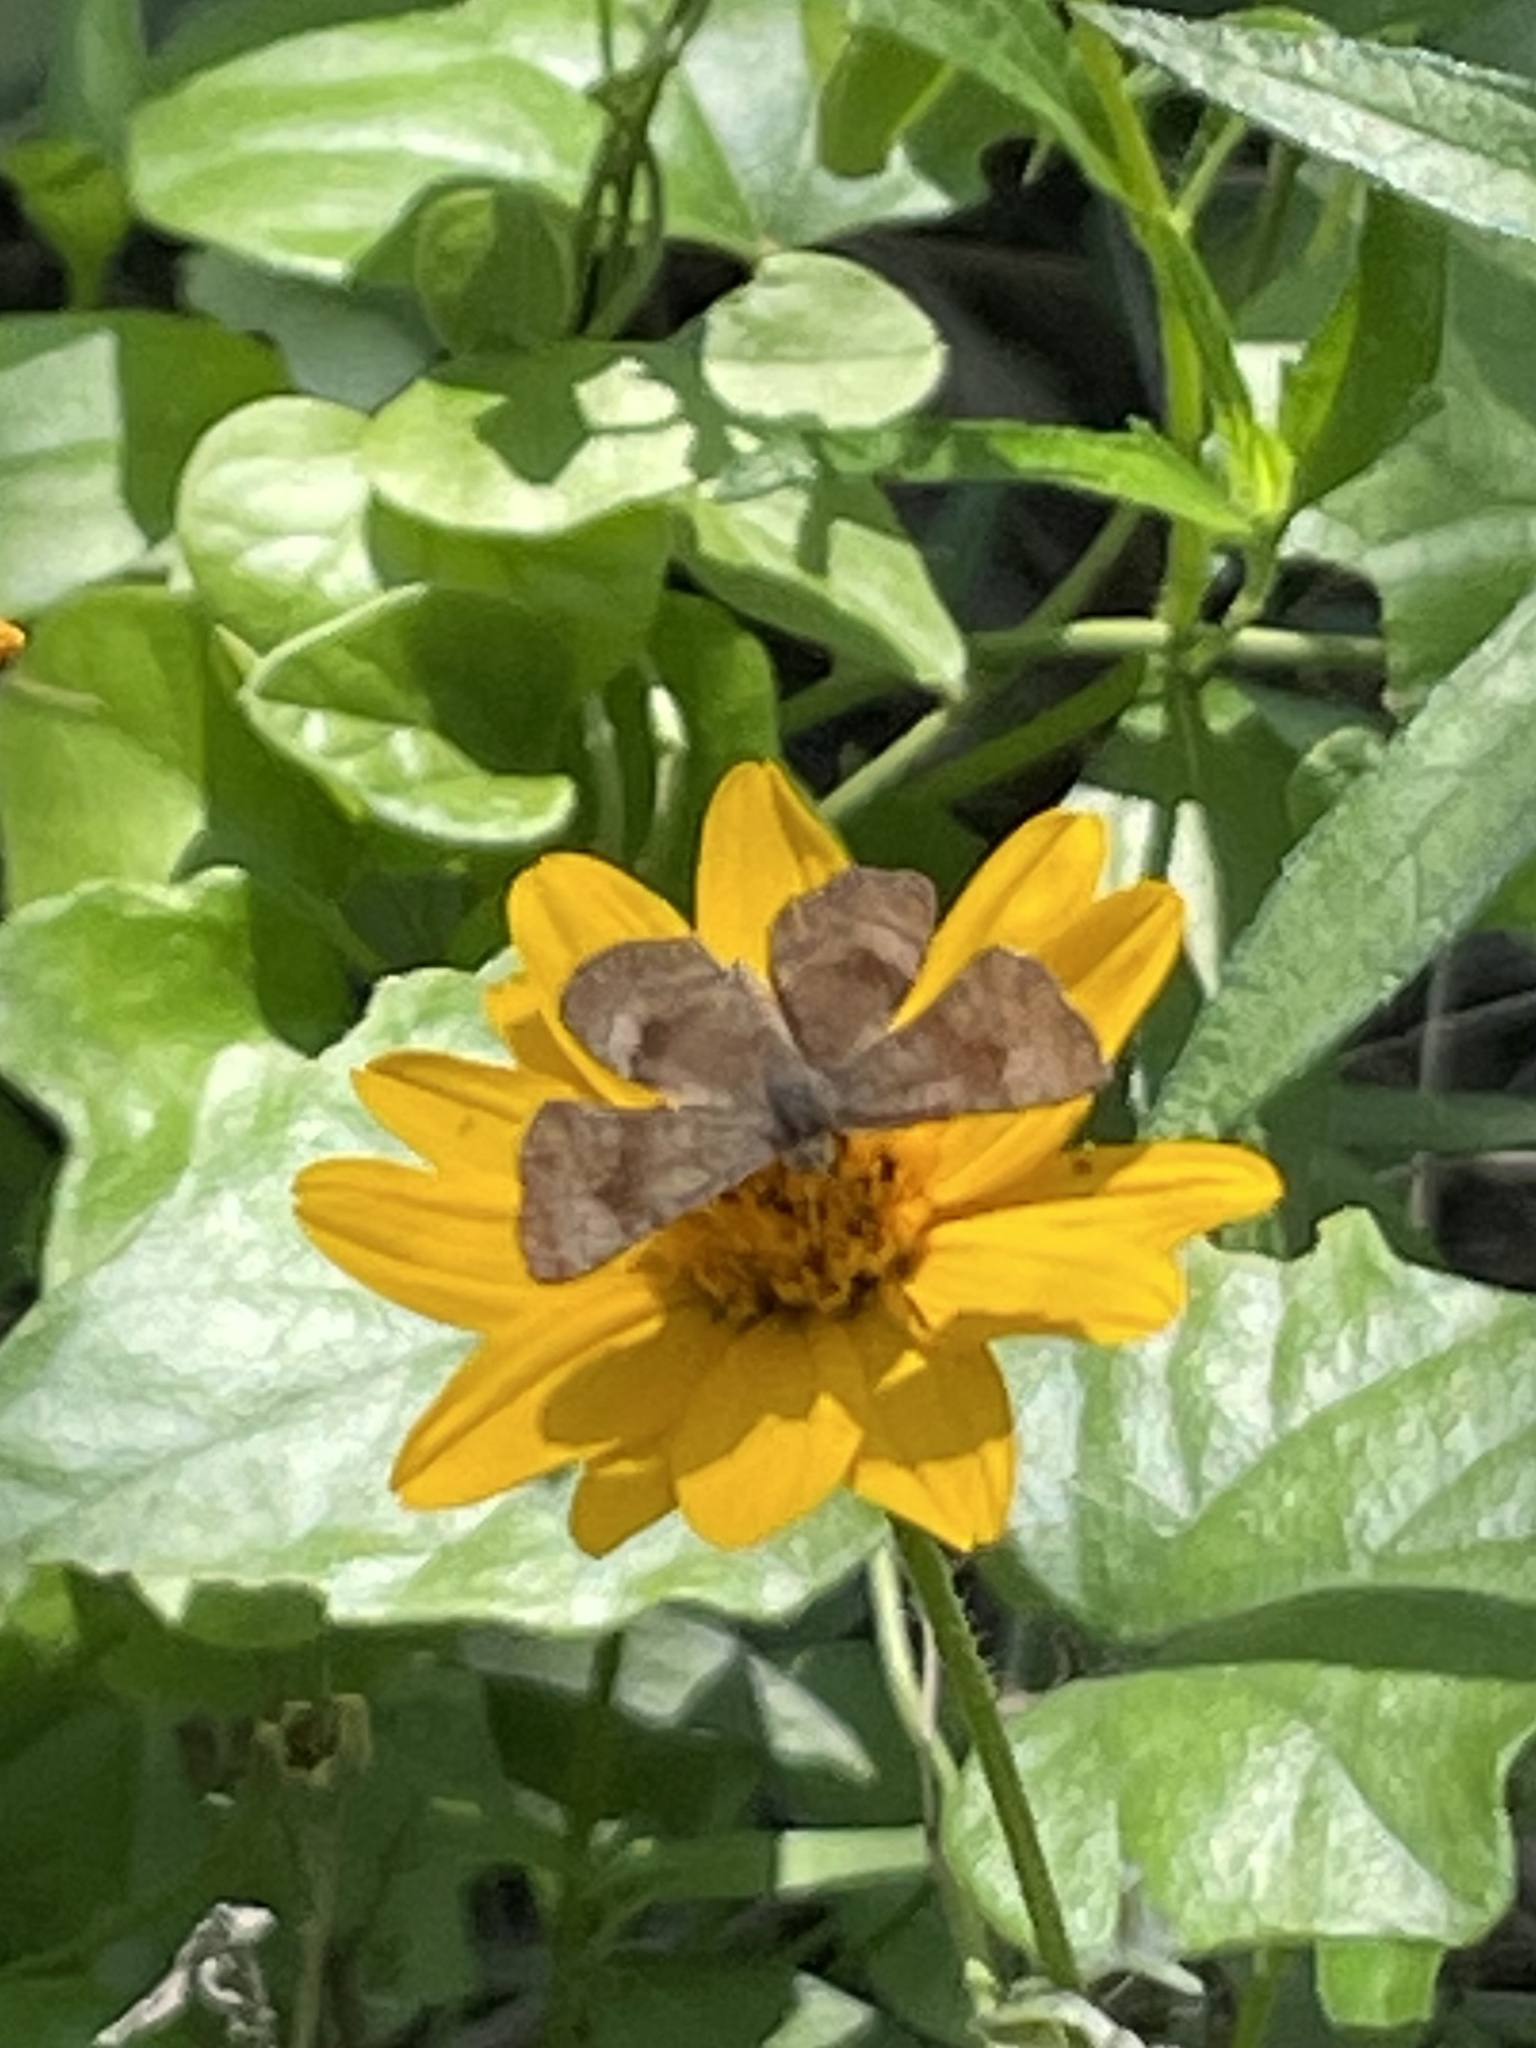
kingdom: Animalia
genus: Calephelis
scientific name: Calephelis nemesis
